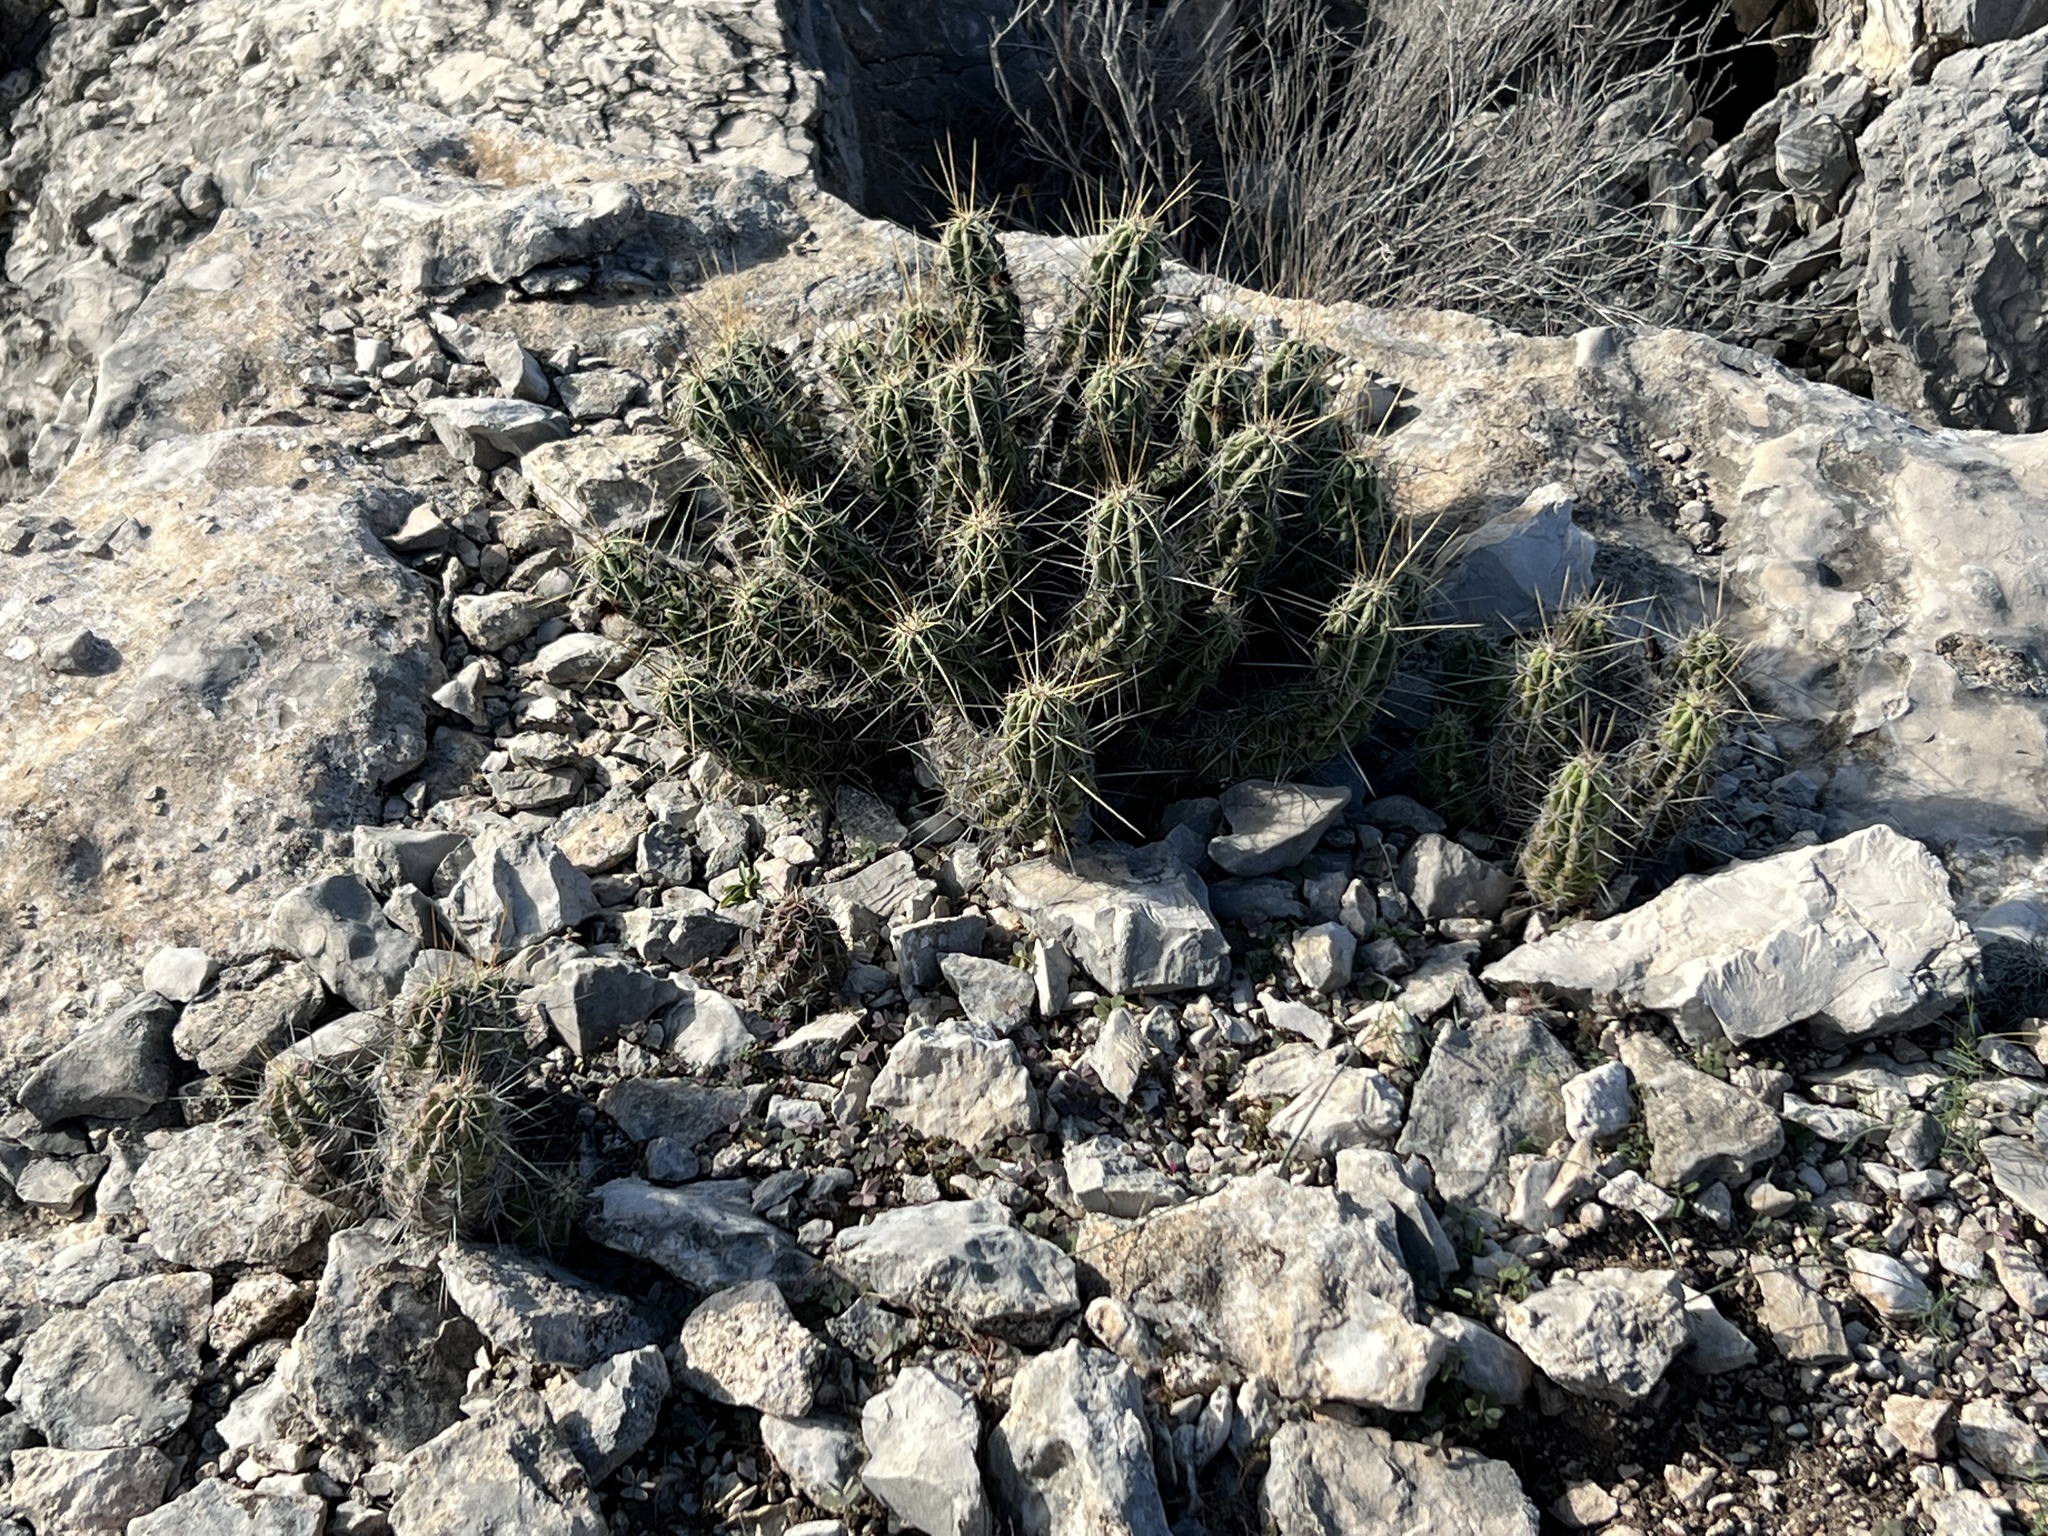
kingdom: Plantae
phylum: Tracheophyta
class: Magnoliopsida
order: Caryophyllales
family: Cactaceae
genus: Echinocereus
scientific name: Echinocereus enneacanthus
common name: Pitaya
